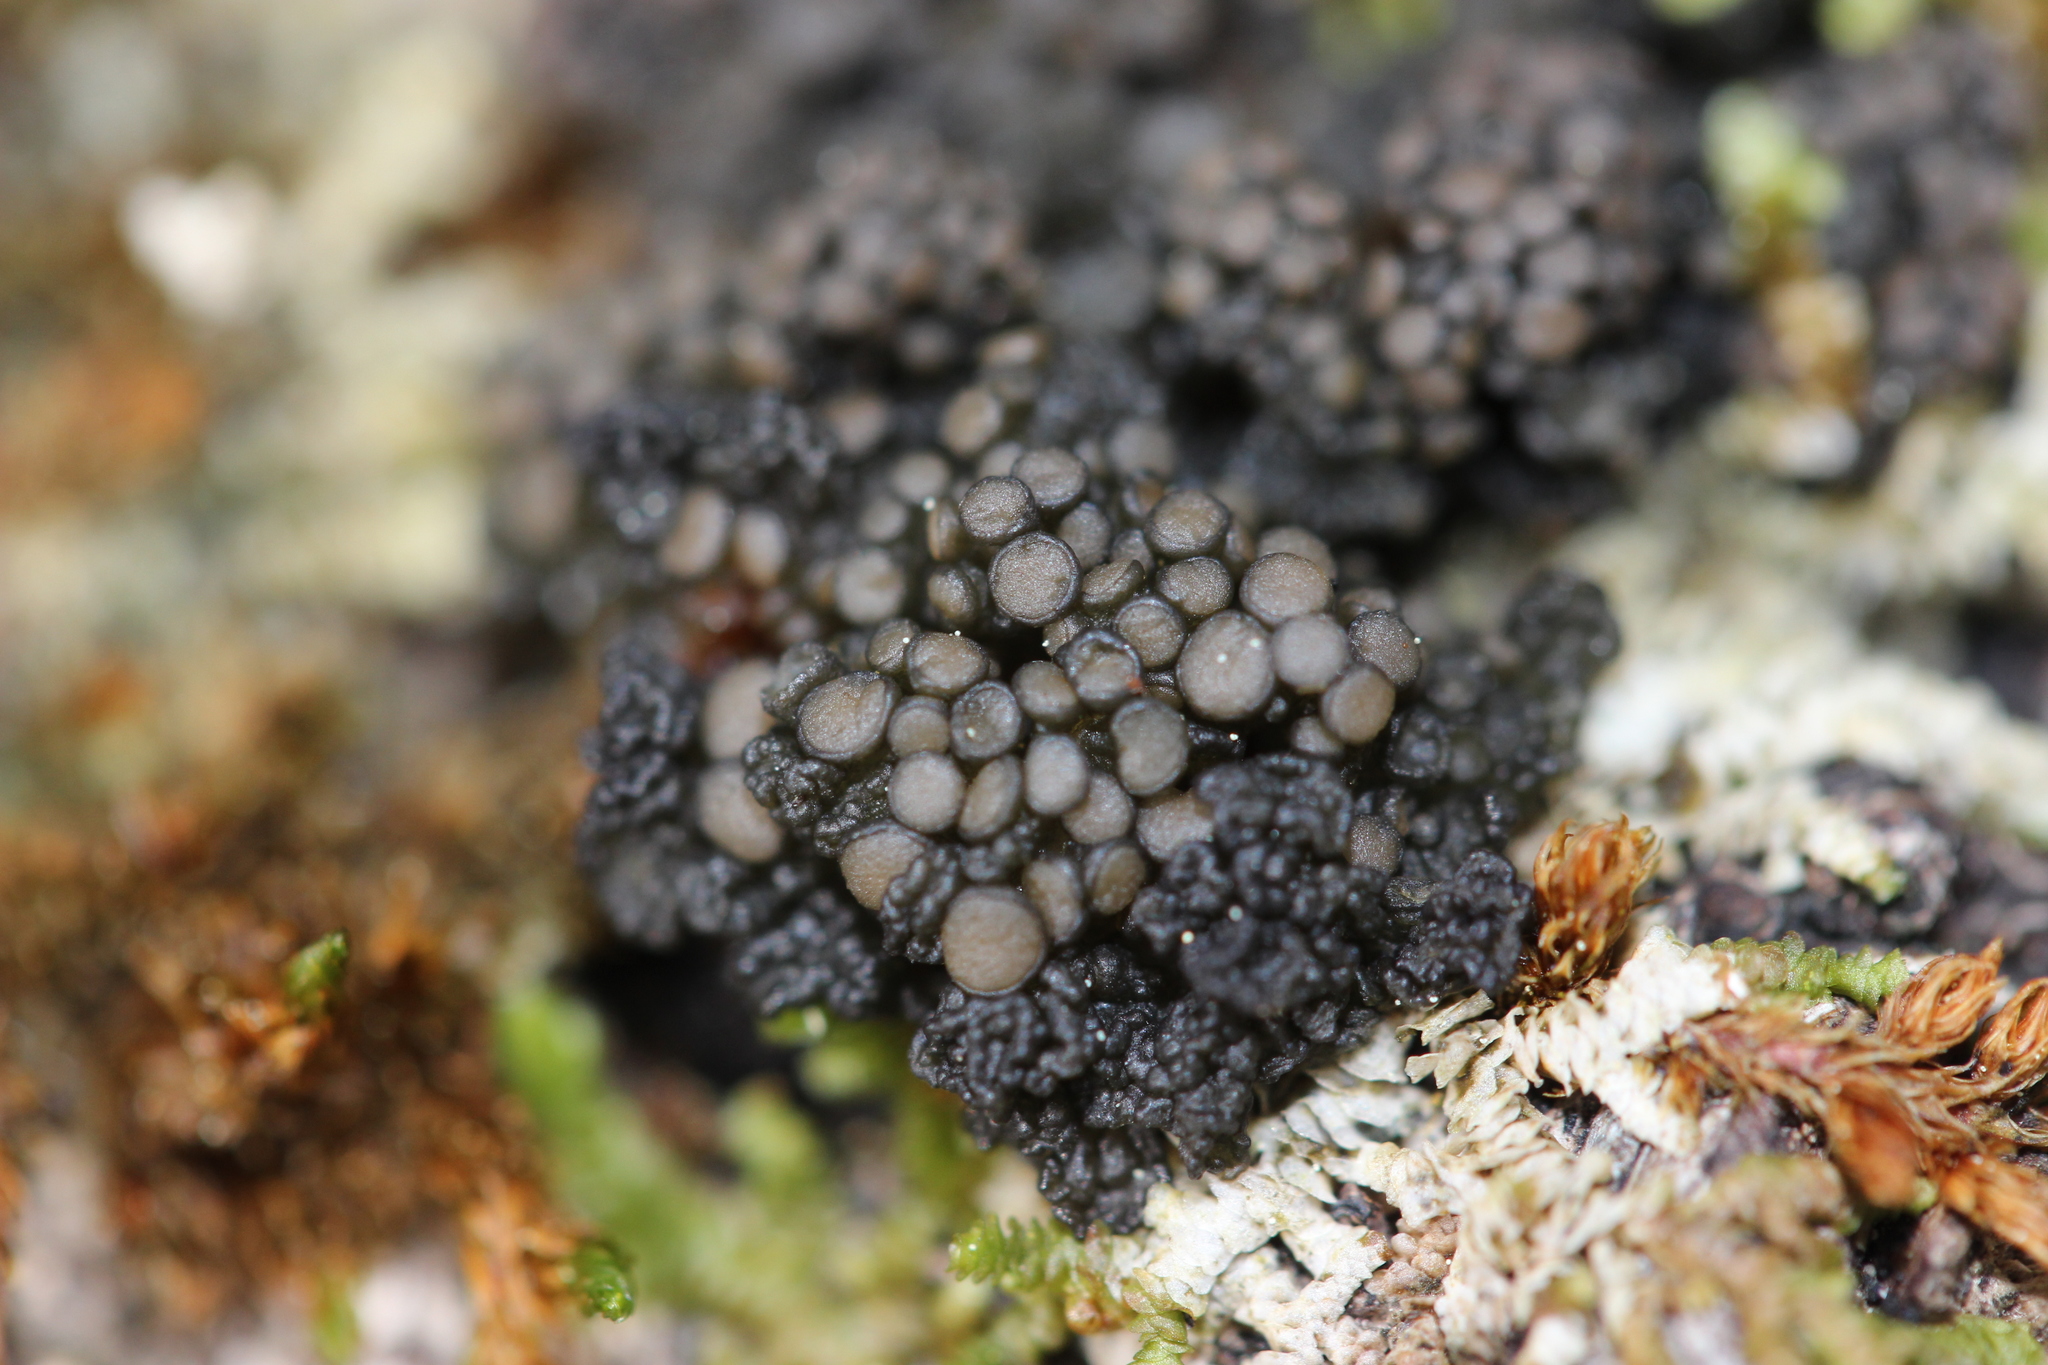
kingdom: Fungi
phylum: Ascomycota
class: Lecanoromycetes
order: Arctomiales
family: Arctomiaceae
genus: Arctomia
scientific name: Arctomia fascicularis
